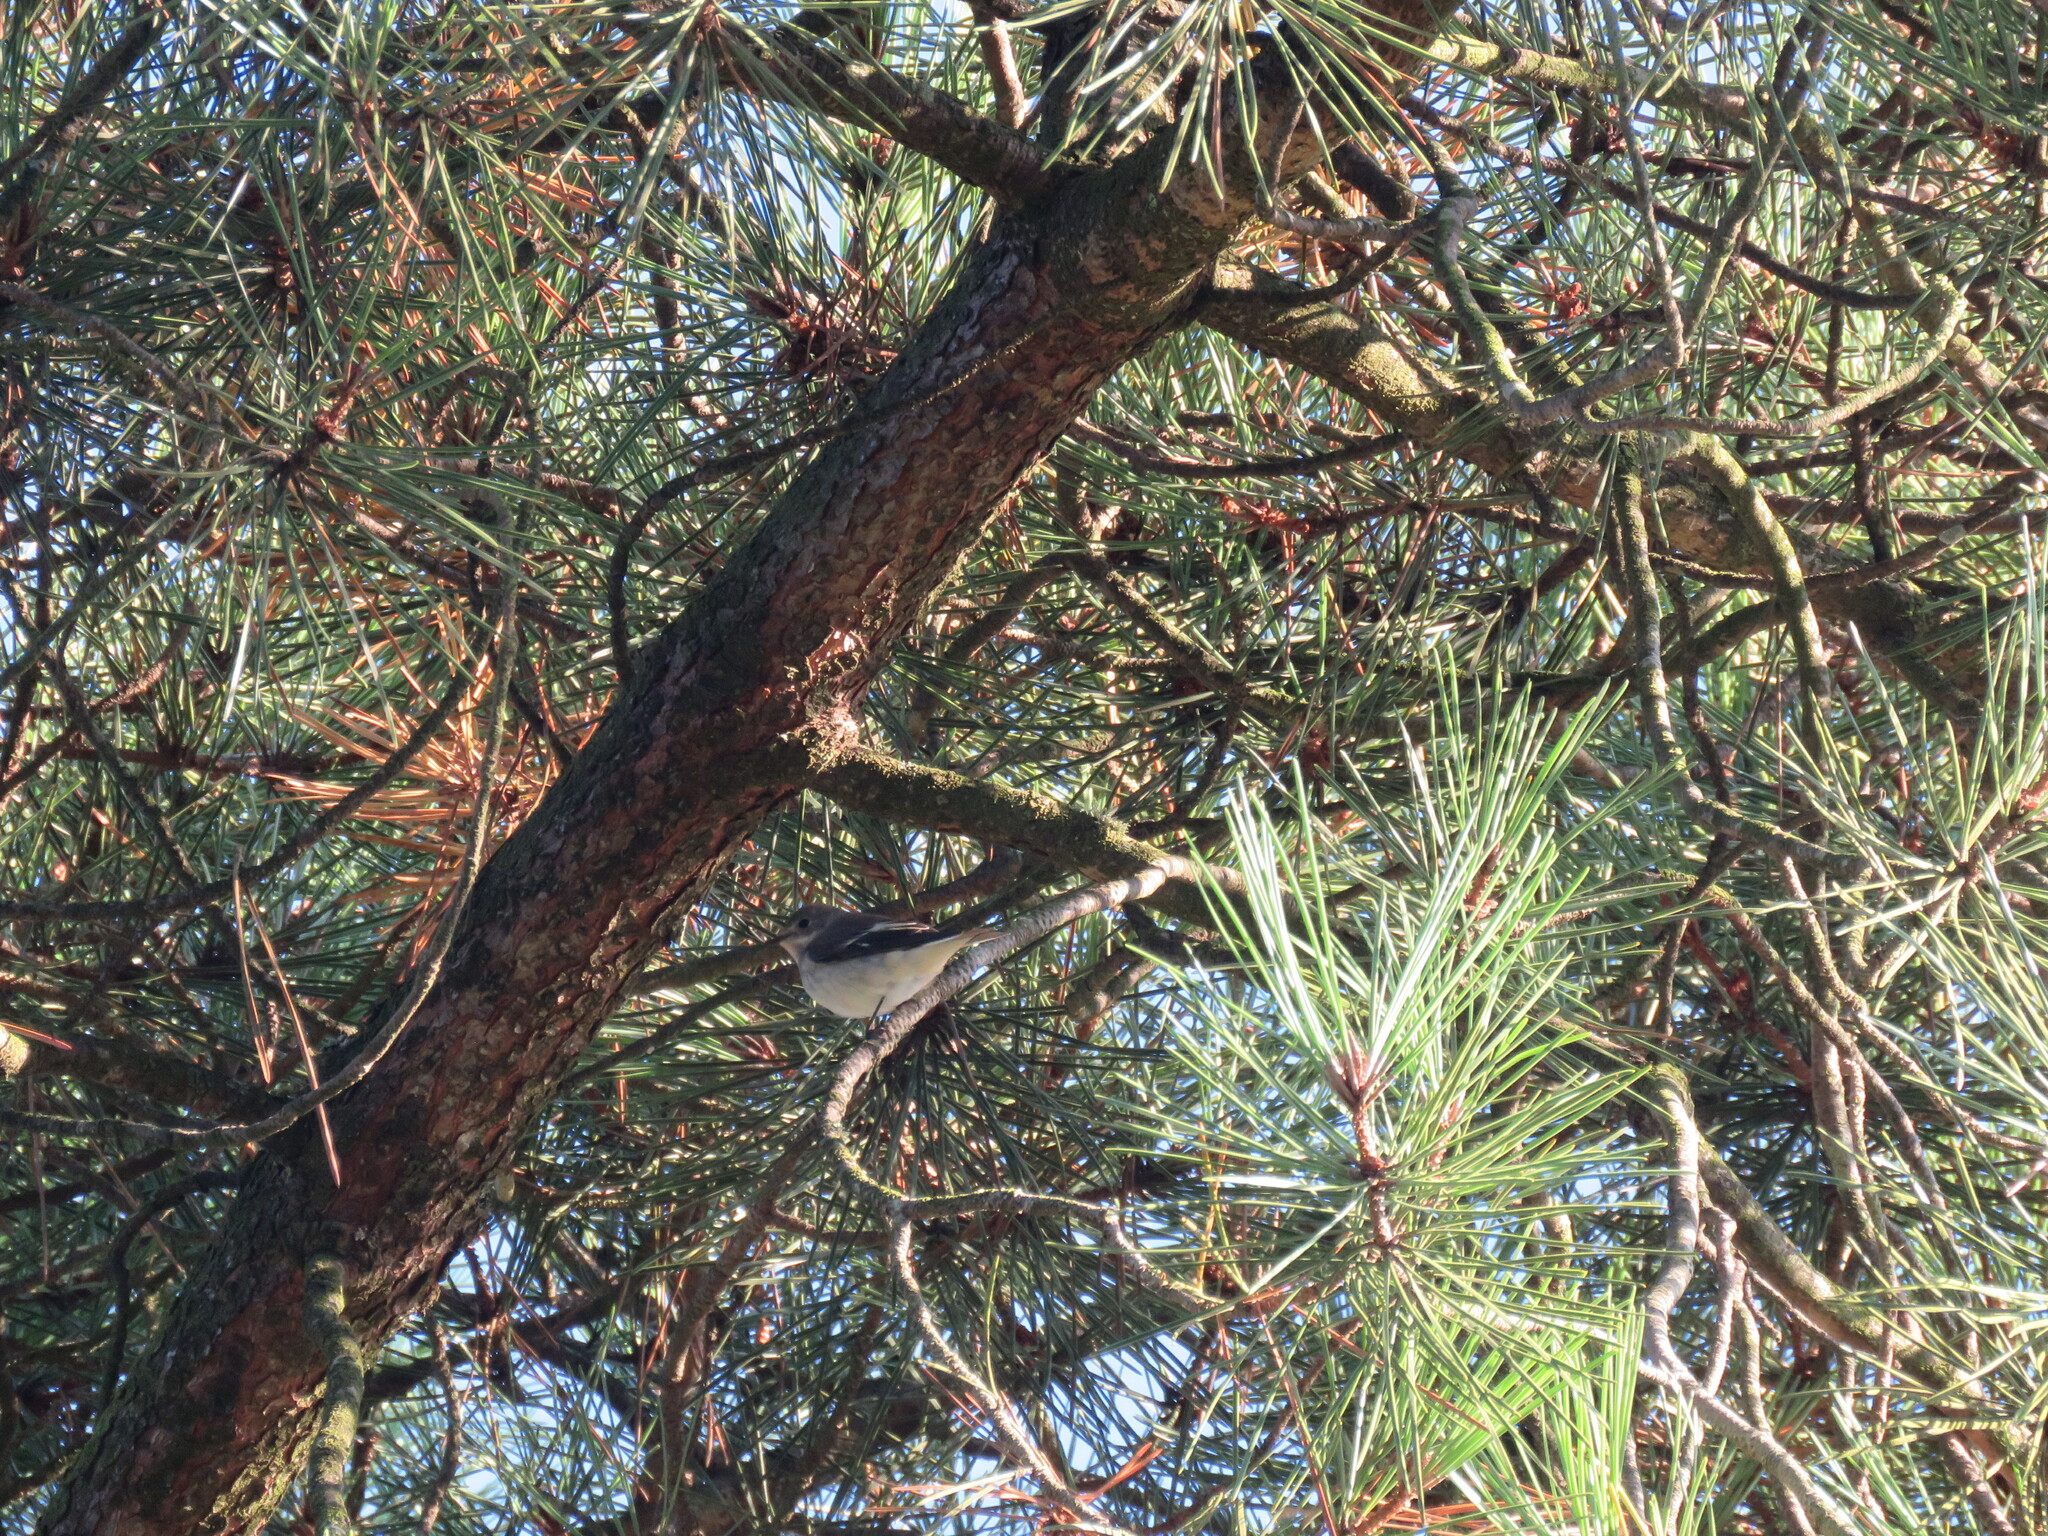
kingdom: Animalia
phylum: Chordata
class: Aves
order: Passeriformes
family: Muscicapidae
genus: Ficedula
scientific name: Ficedula hypoleuca
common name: European pied flycatcher
